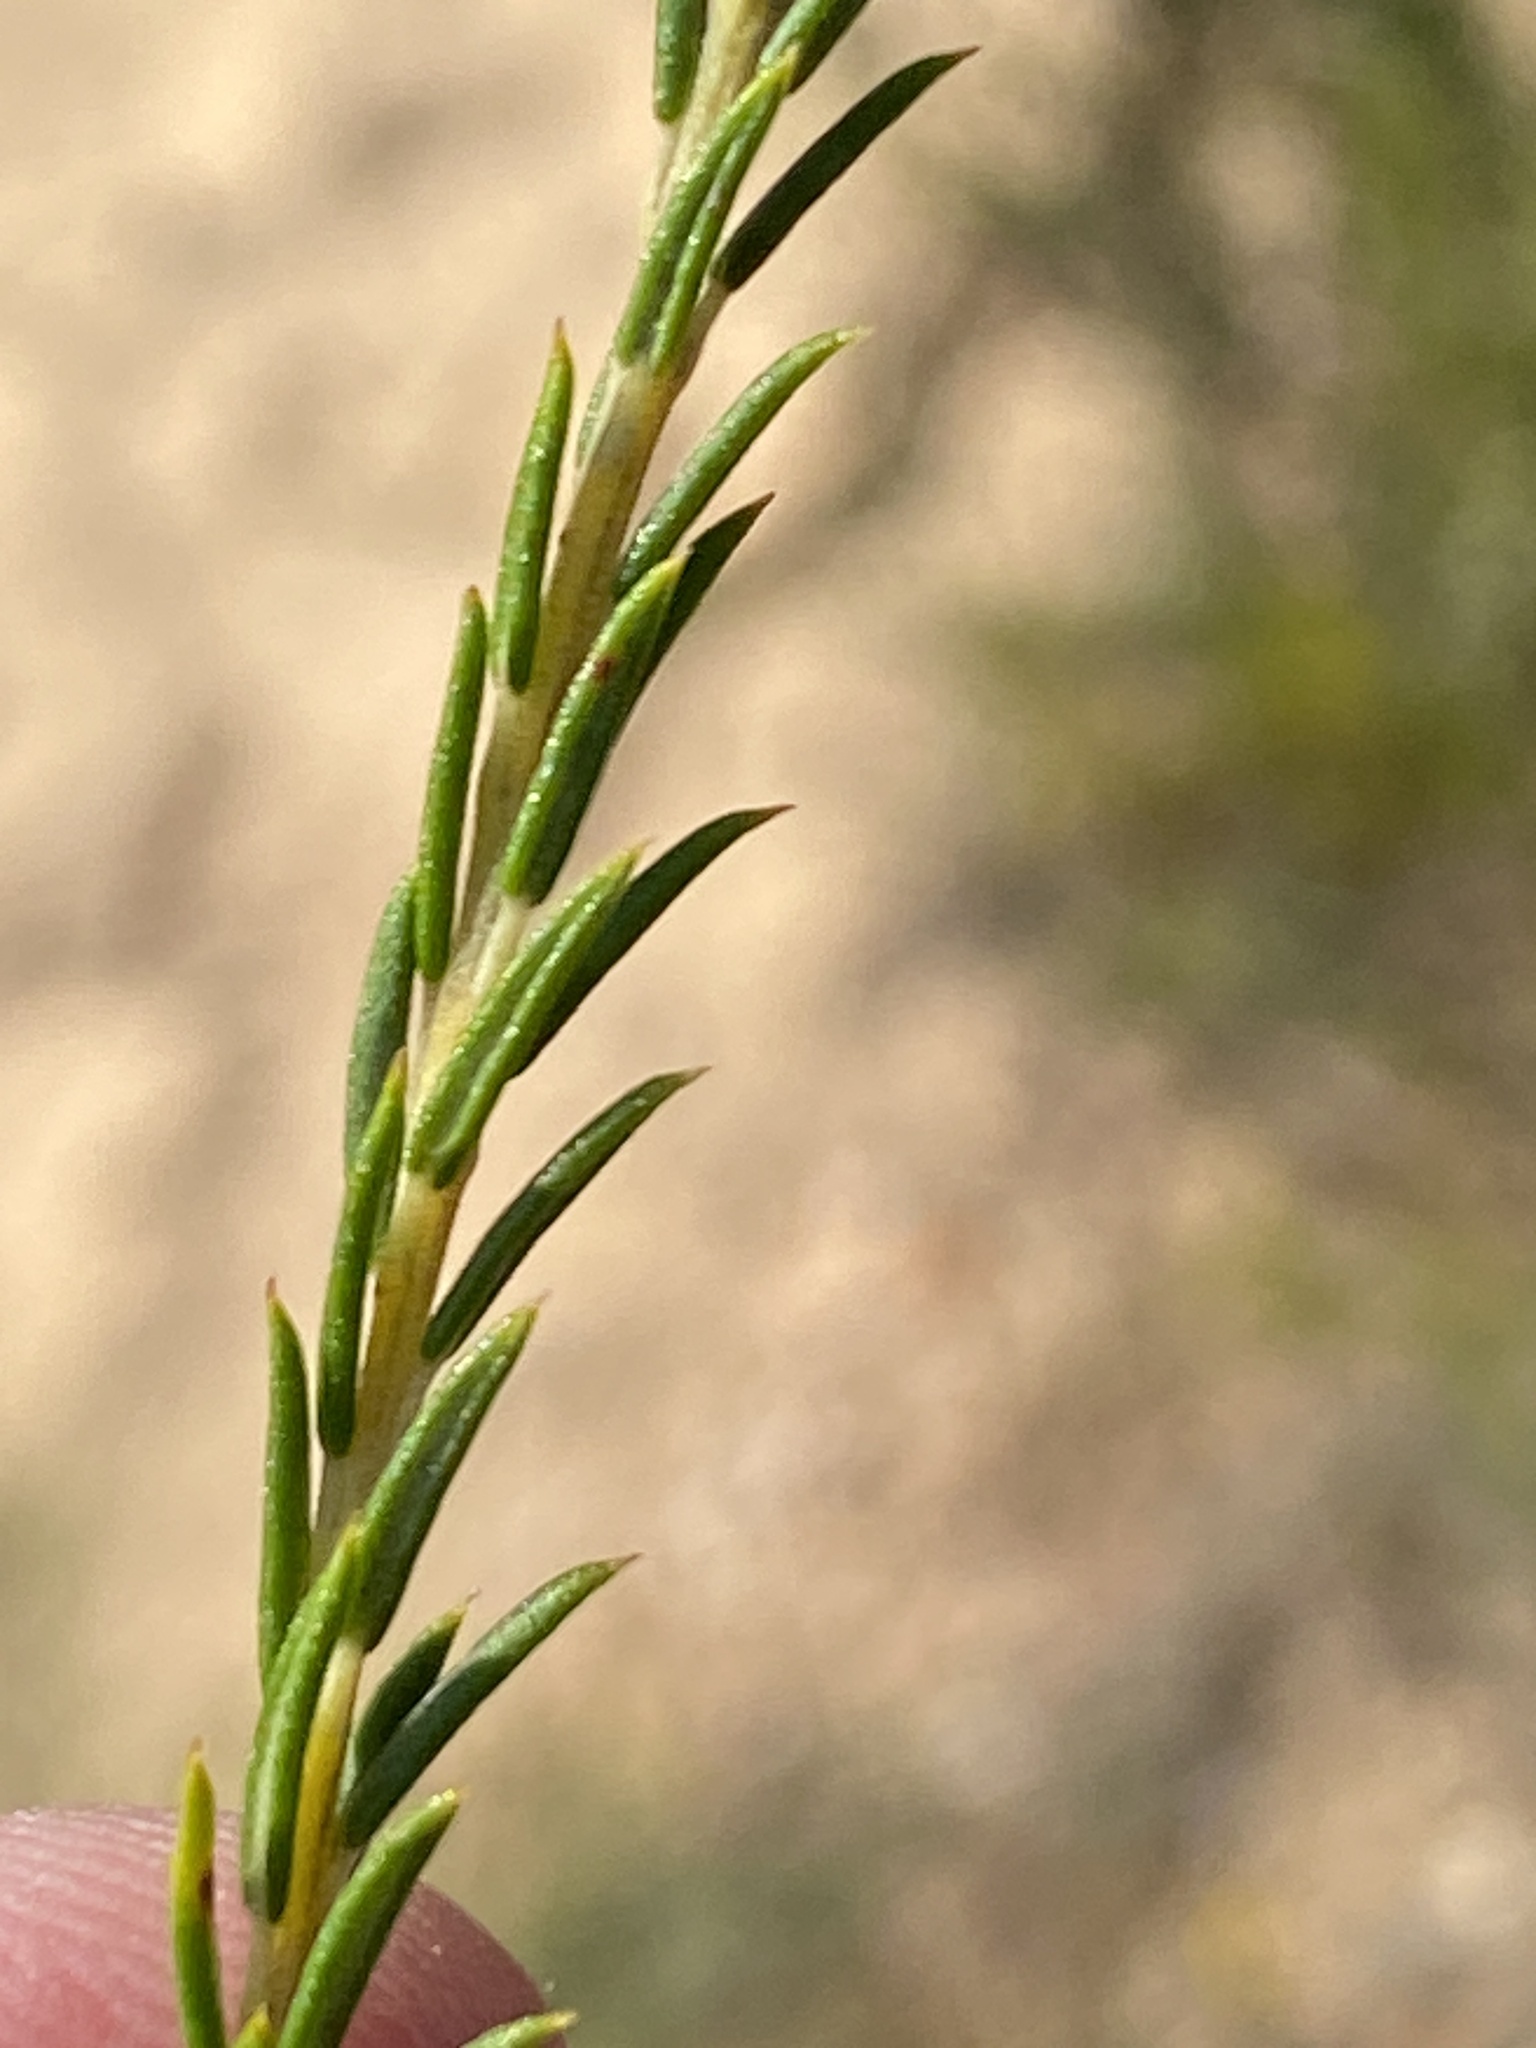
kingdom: Plantae
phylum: Tracheophyta
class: Magnoliopsida
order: Rosales
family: Rhamnaceae
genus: Phylica
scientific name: Phylica cryptandroides
